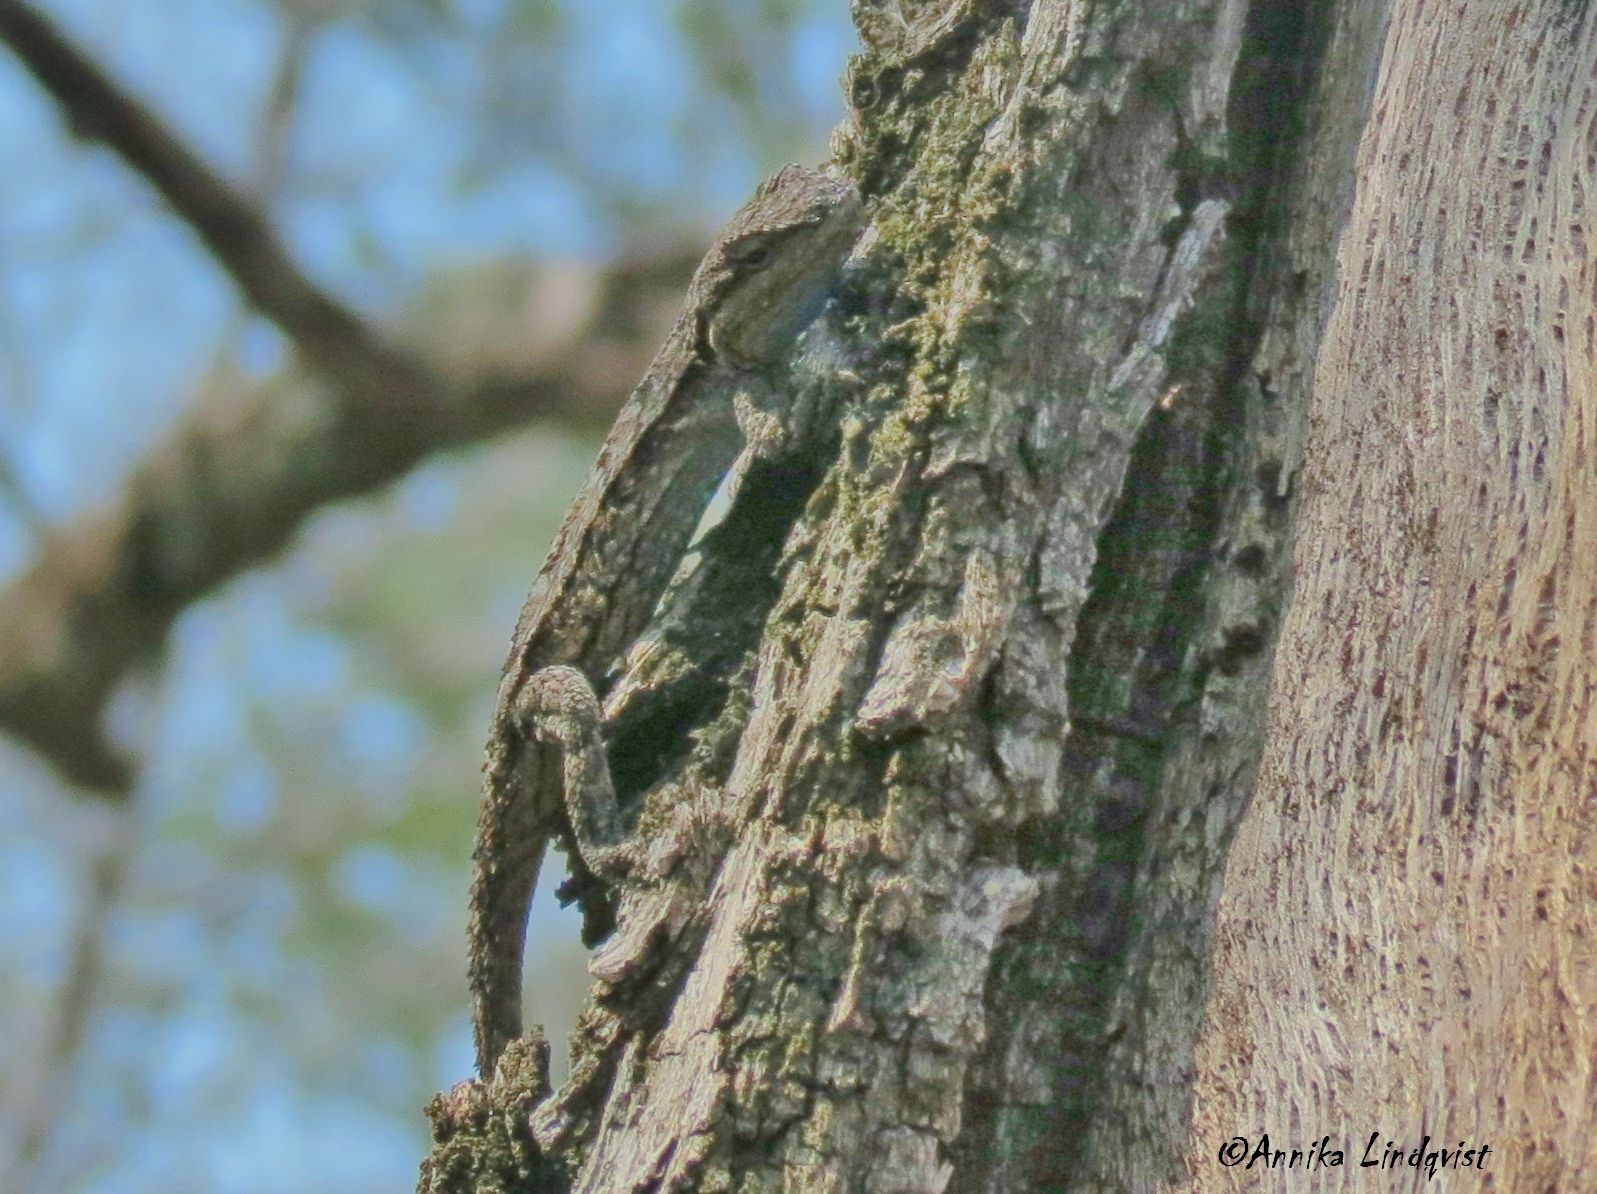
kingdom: Animalia
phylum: Chordata
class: Squamata
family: Phrynosomatidae
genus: Urosaurus
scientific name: Urosaurus ornatus
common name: Ornate tree lizard
